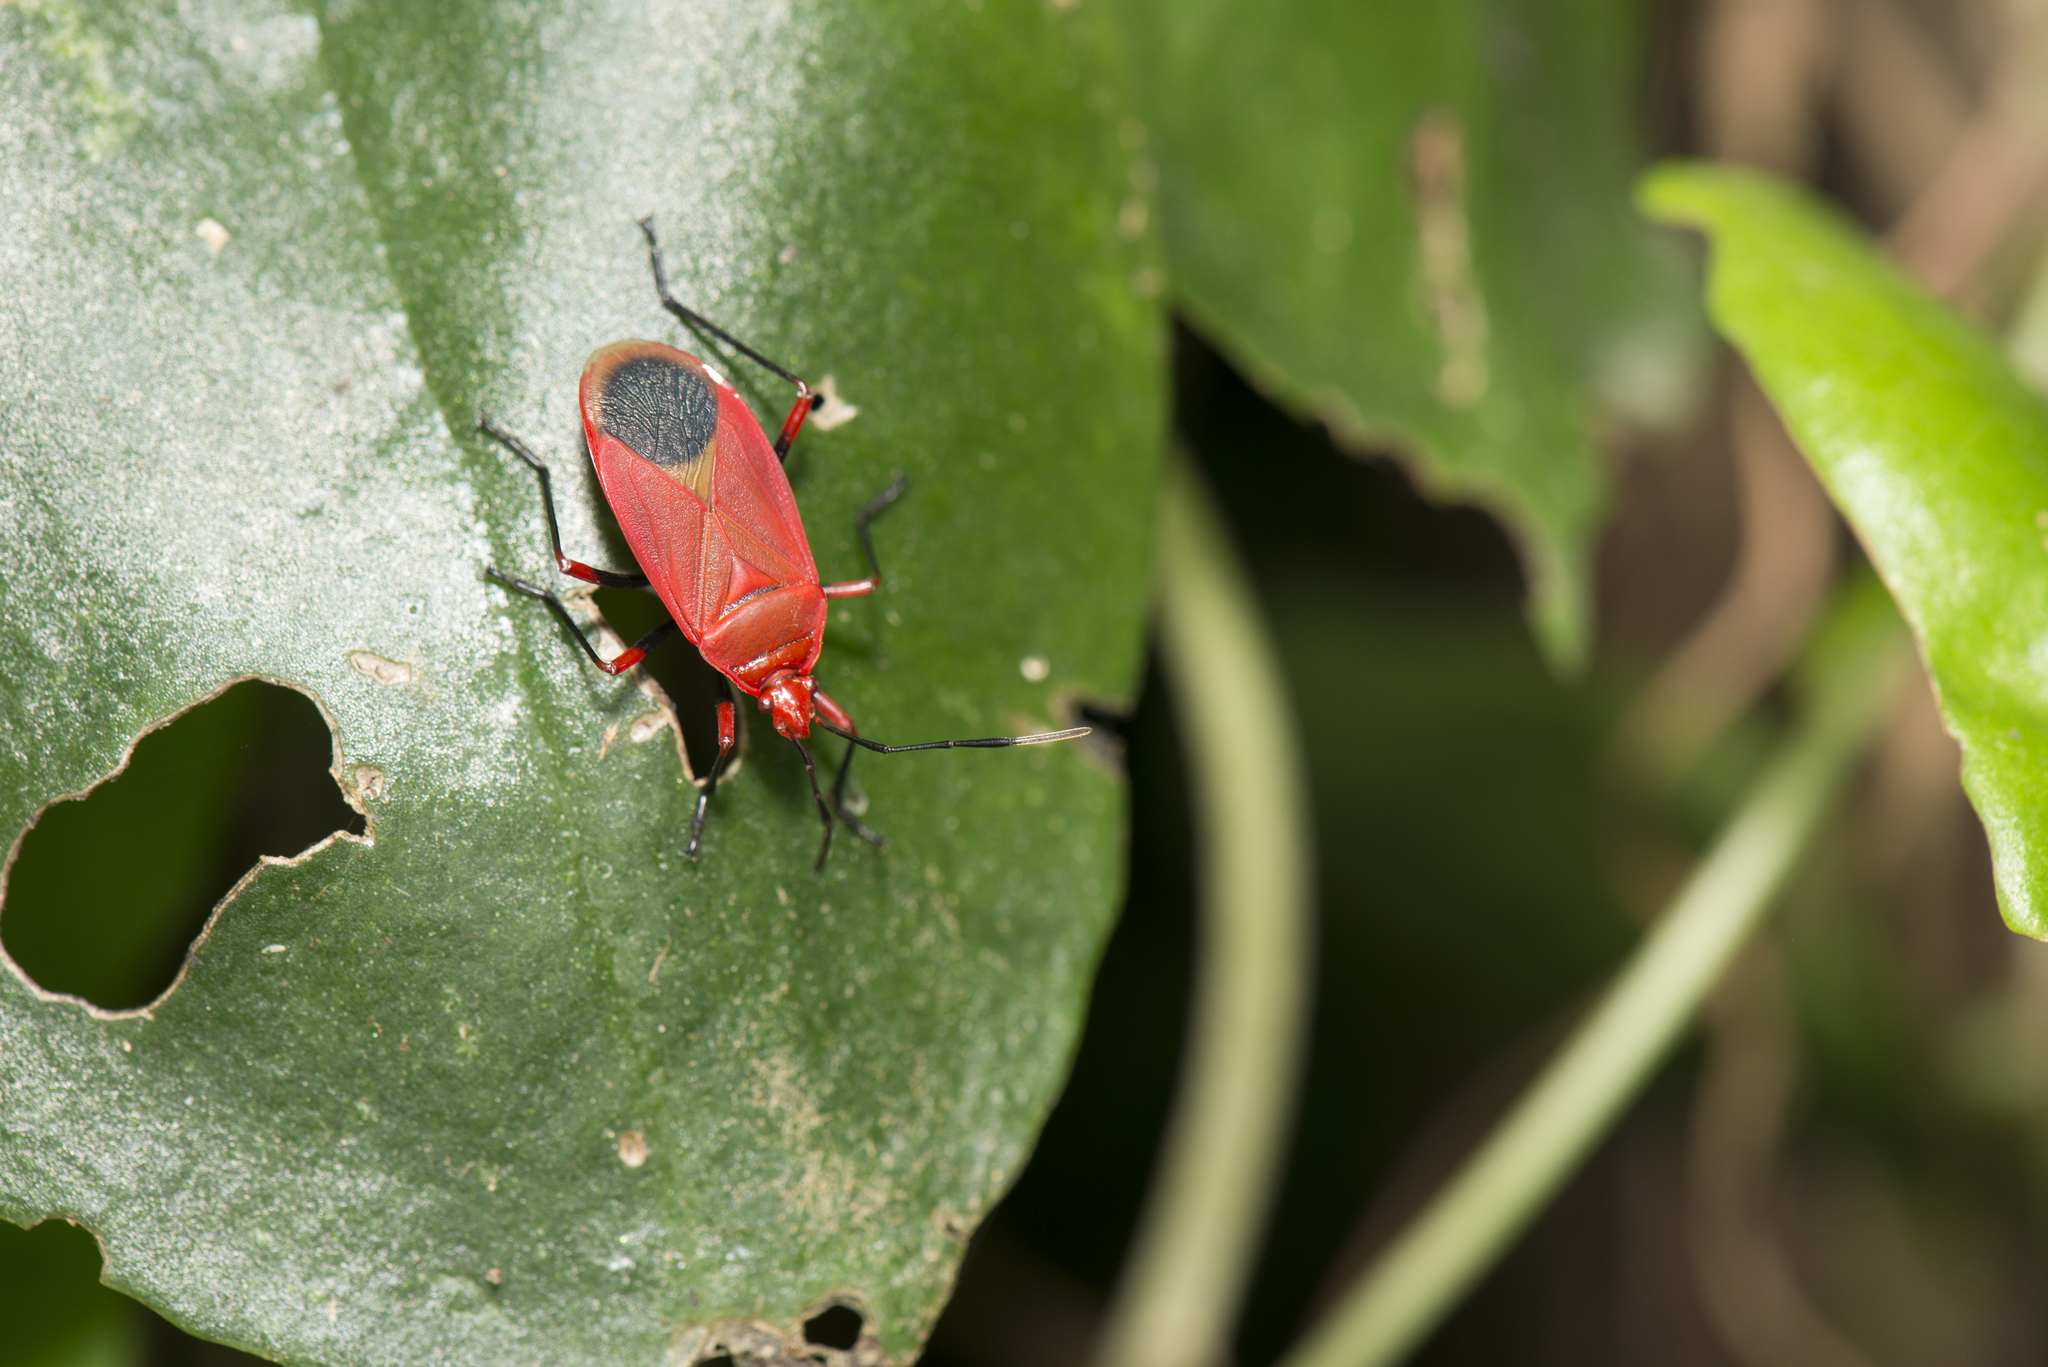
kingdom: Animalia
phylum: Arthropoda
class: Insecta
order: Hemiptera
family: Pyrrhocoridae
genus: Dindymus
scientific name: Dindymus brevis
